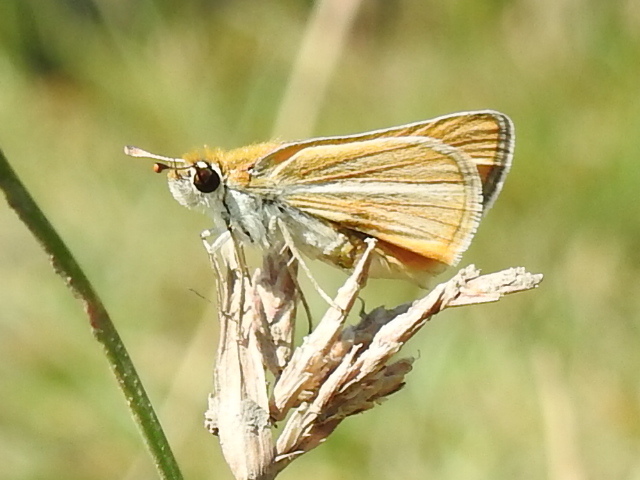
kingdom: Animalia
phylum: Arthropoda
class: Insecta
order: Lepidoptera
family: Hesperiidae
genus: Copaeodes
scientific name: Copaeodes minima
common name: Southern skipperling
